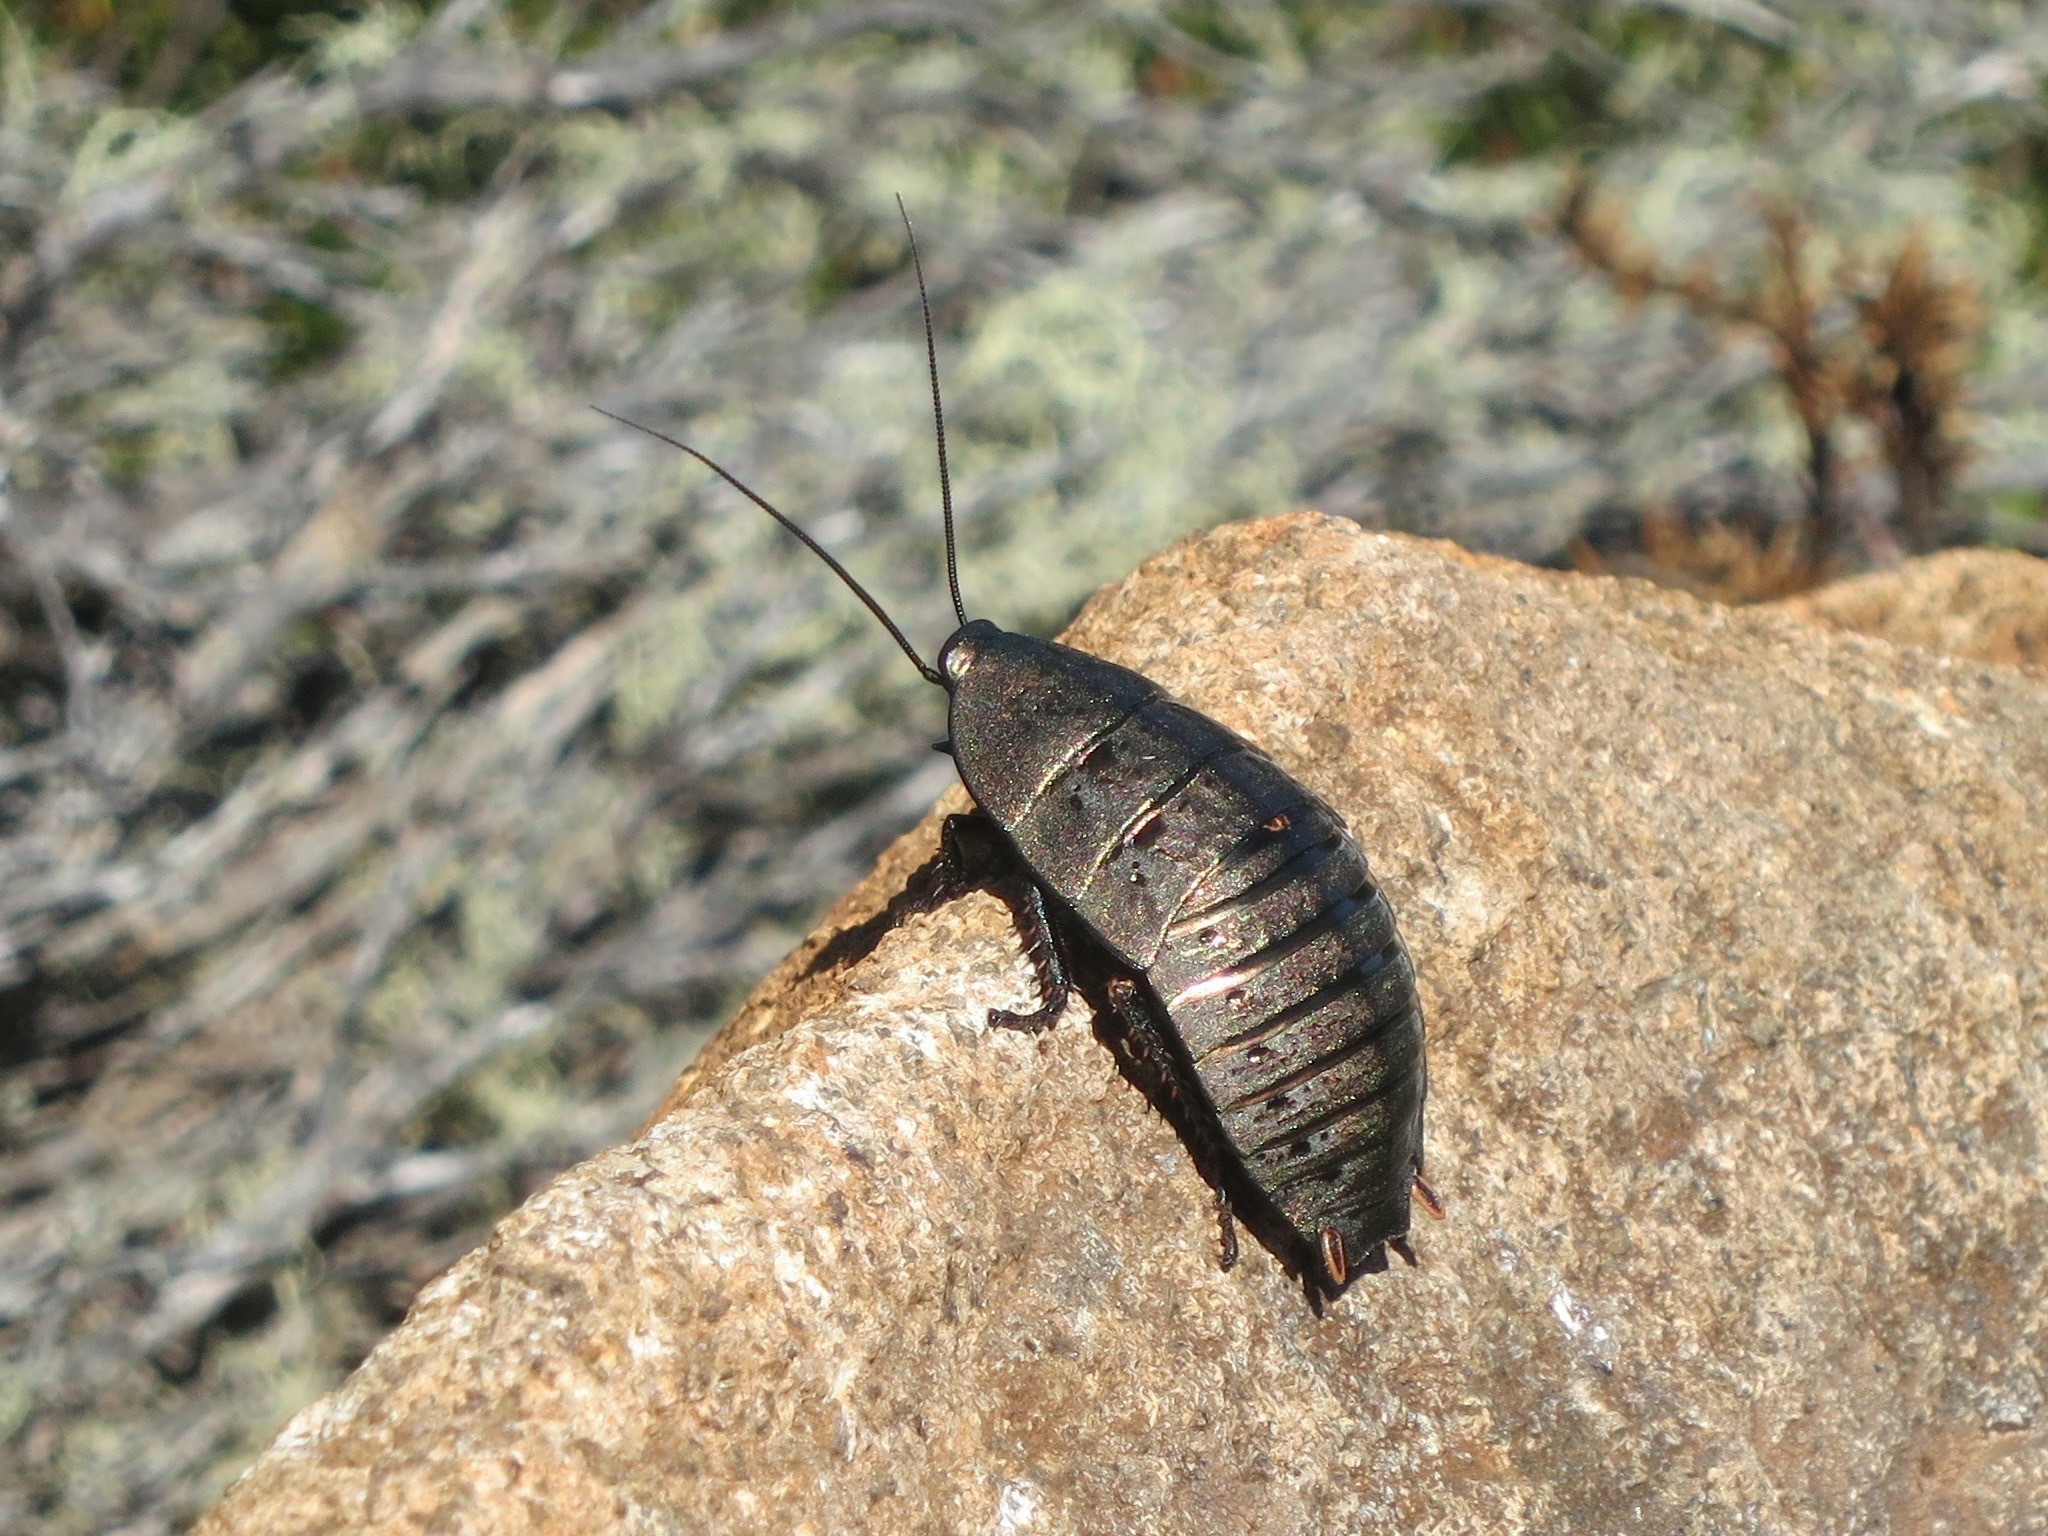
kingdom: Animalia
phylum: Arthropoda
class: Insecta
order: Blattodea
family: Blattidae
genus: Polyzosteria
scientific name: Polyzosteria yingina
